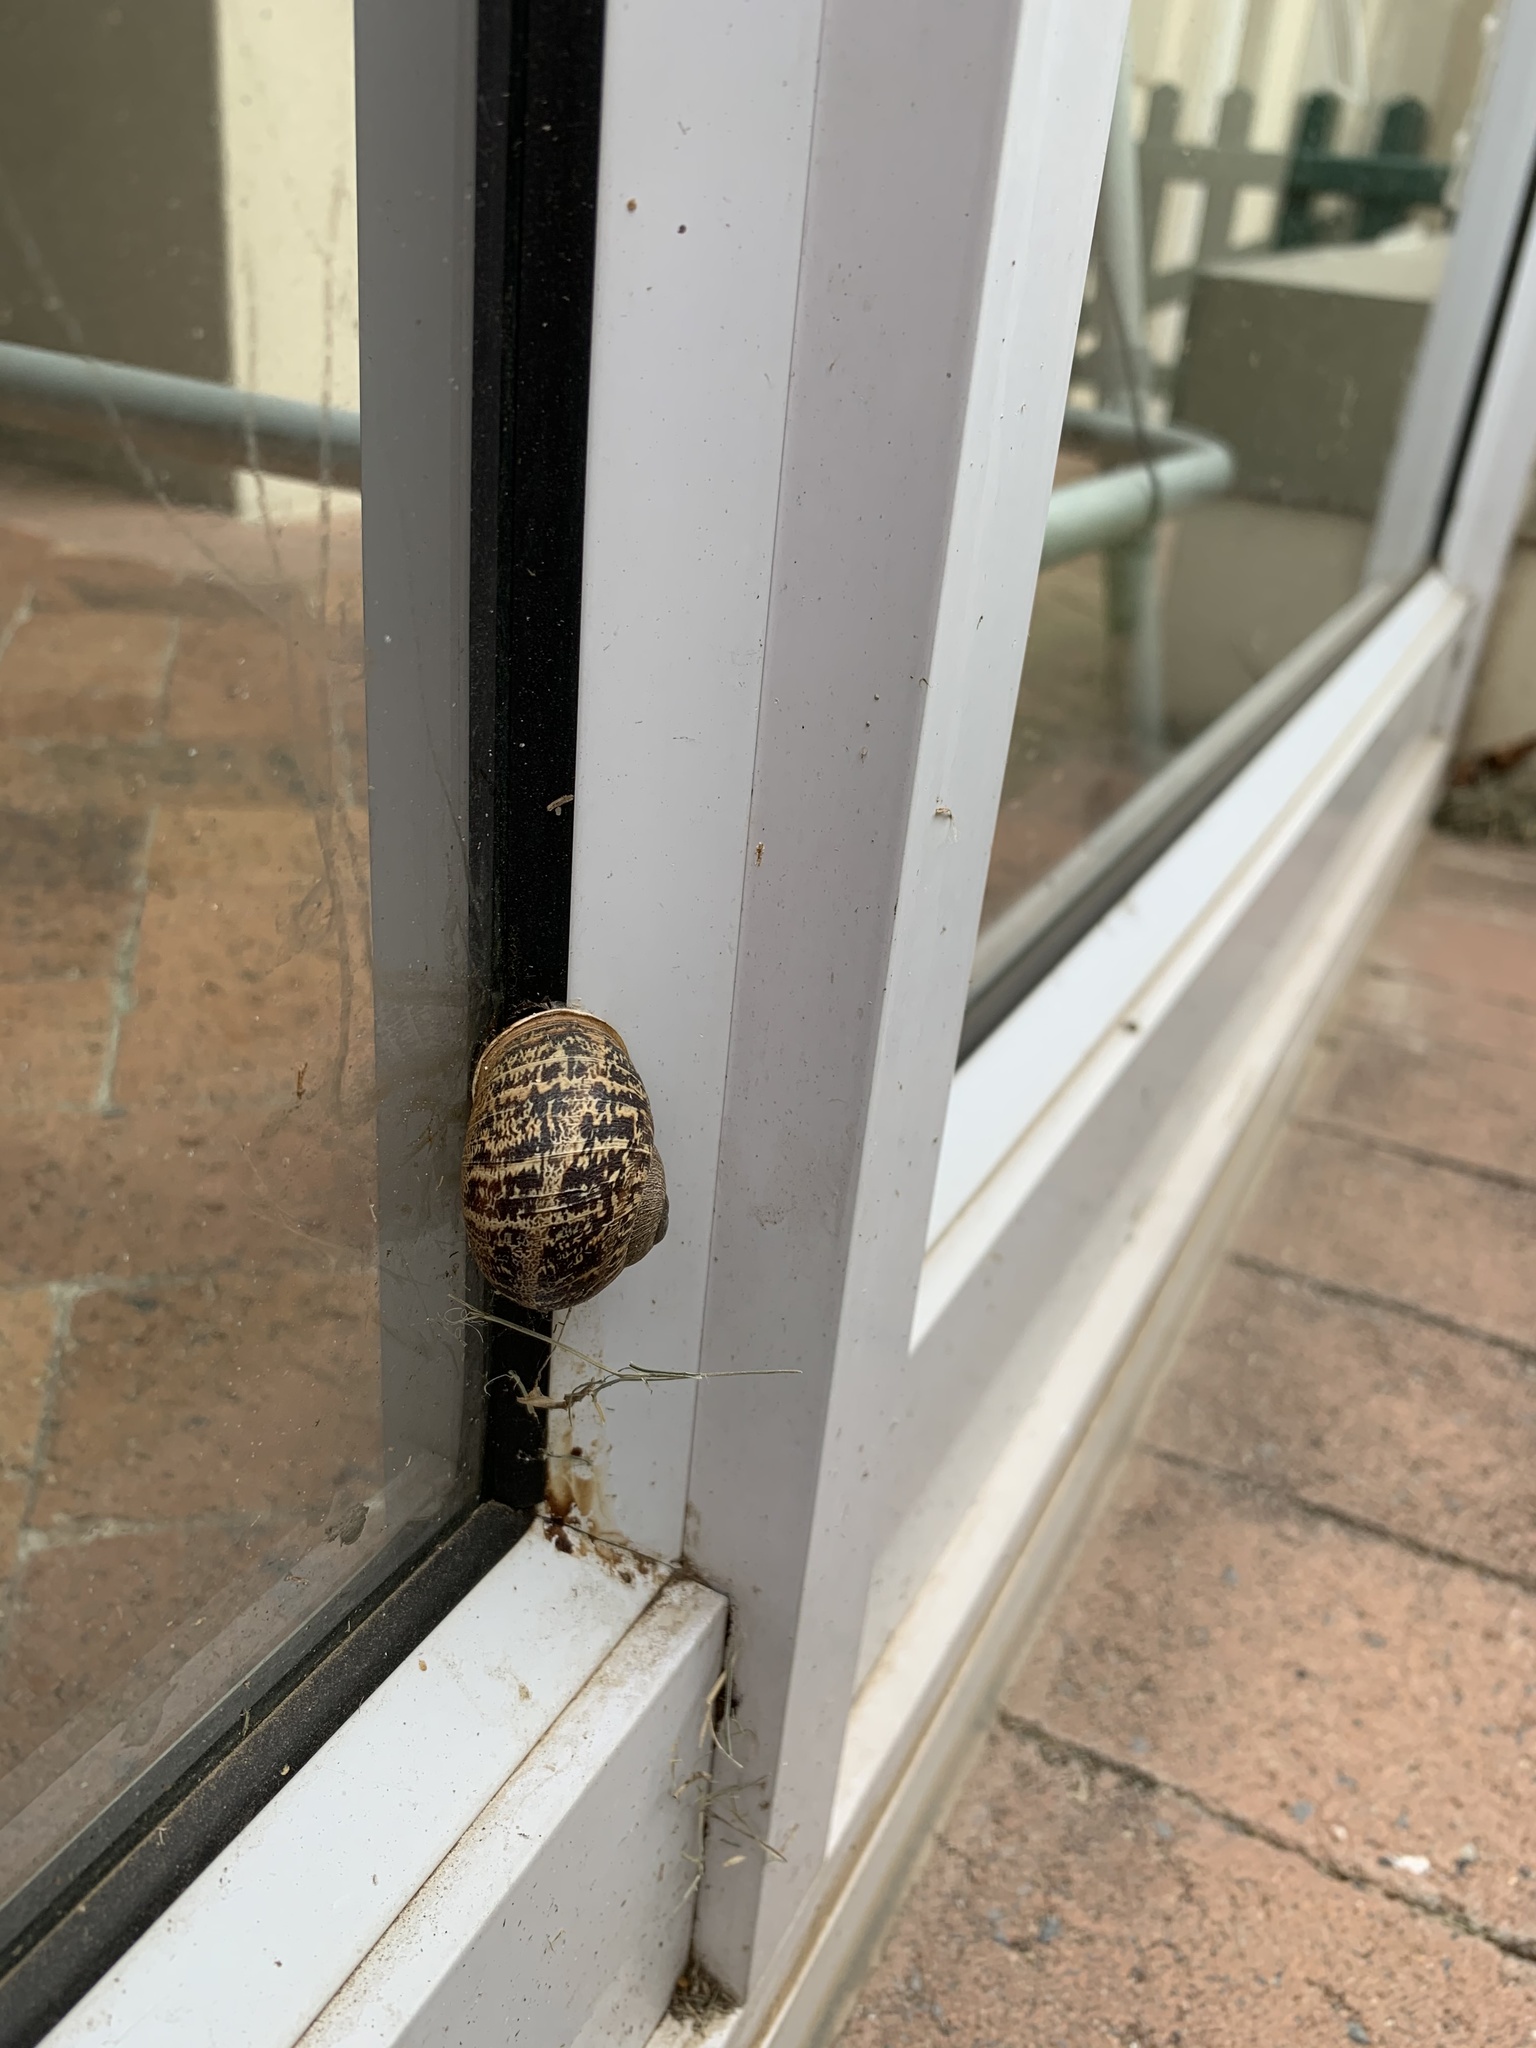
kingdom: Animalia
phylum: Mollusca
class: Gastropoda
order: Stylommatophora
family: Helicidae
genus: Cornu
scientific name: Cornu aspersum
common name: Brown garden snail
